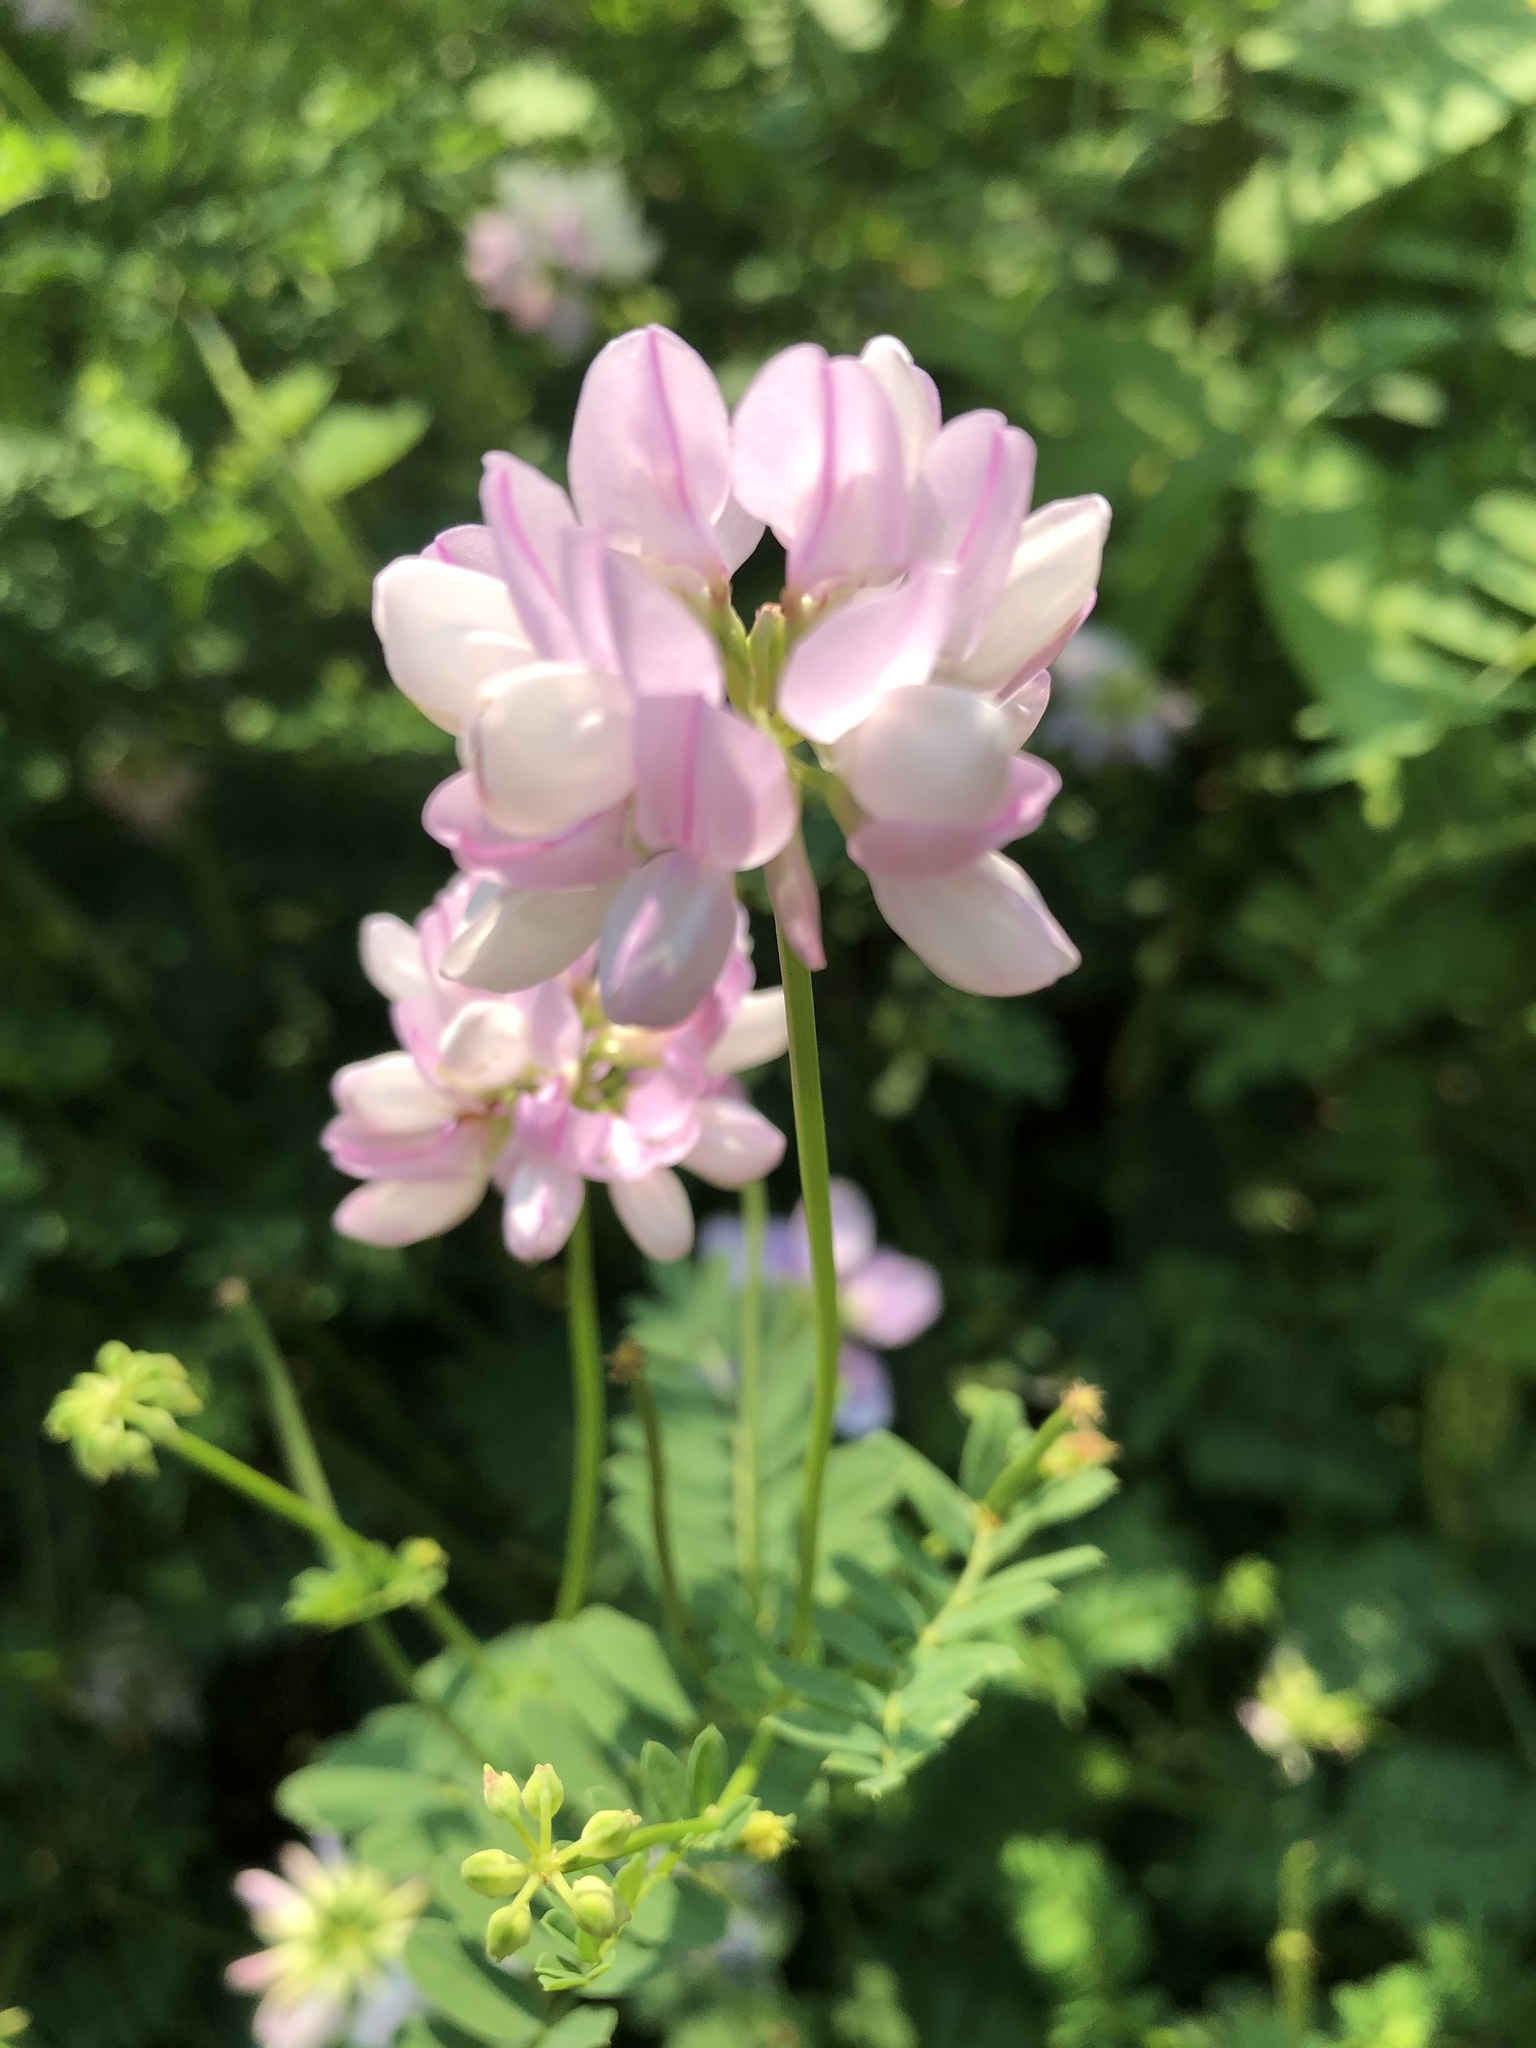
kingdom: Plantae
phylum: Tracheophyta
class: Magnoliopsida
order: Fabales
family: Fabaceae
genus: Coronilla
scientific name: Coronilla varia
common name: Crownvetch
